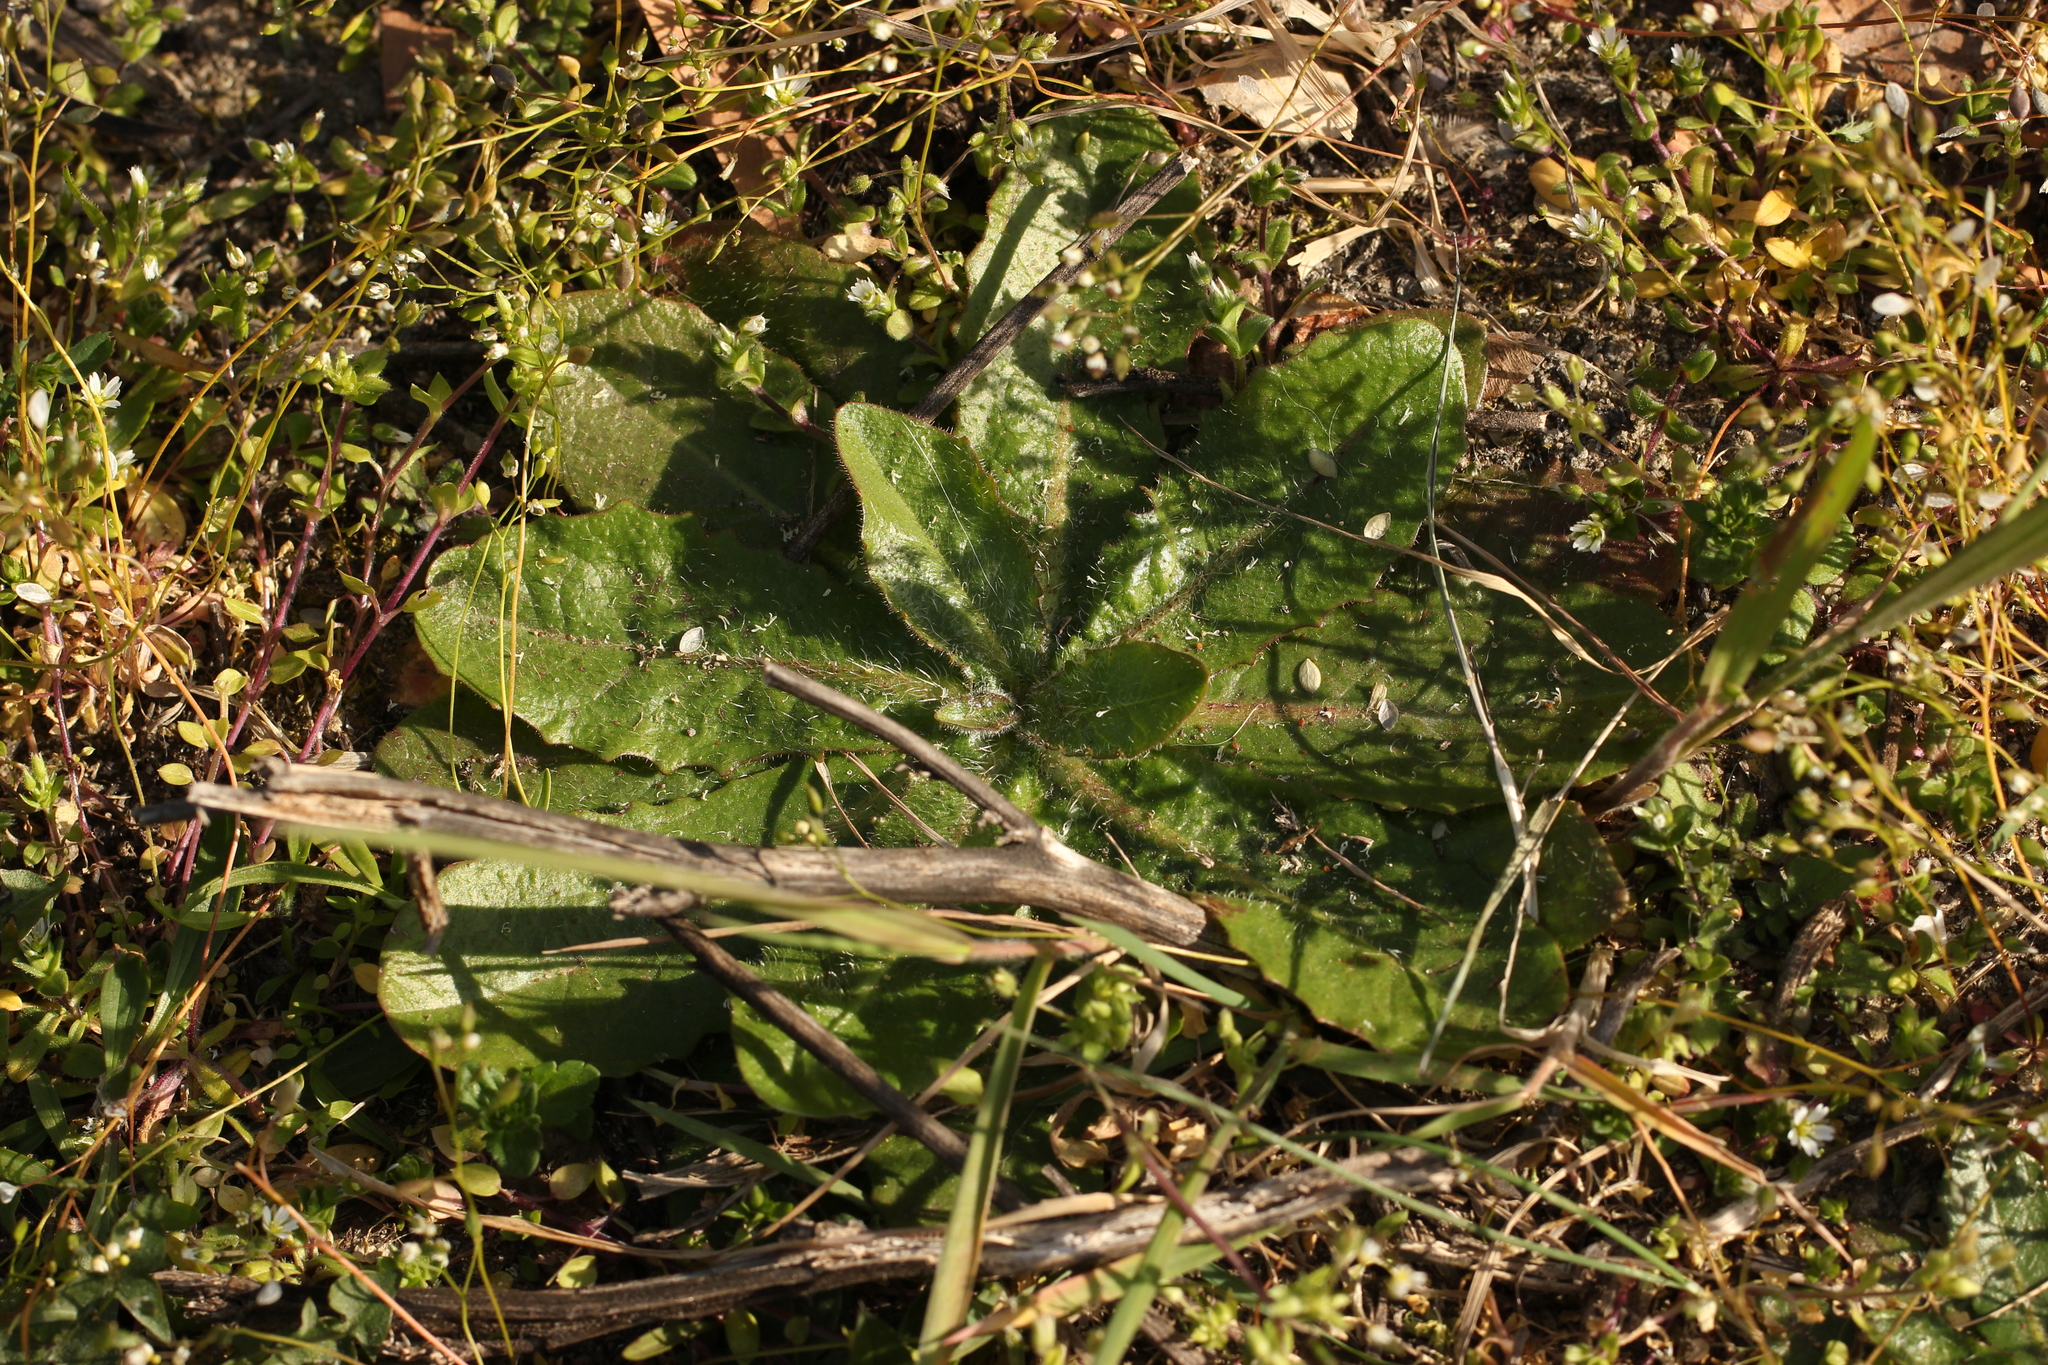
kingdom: Plantae
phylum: Tracheophyta
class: Magnoliopsida
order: Asterales
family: Asteraceae
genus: Hypochaeris
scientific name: Hypochaeris radicata
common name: Flatweed
